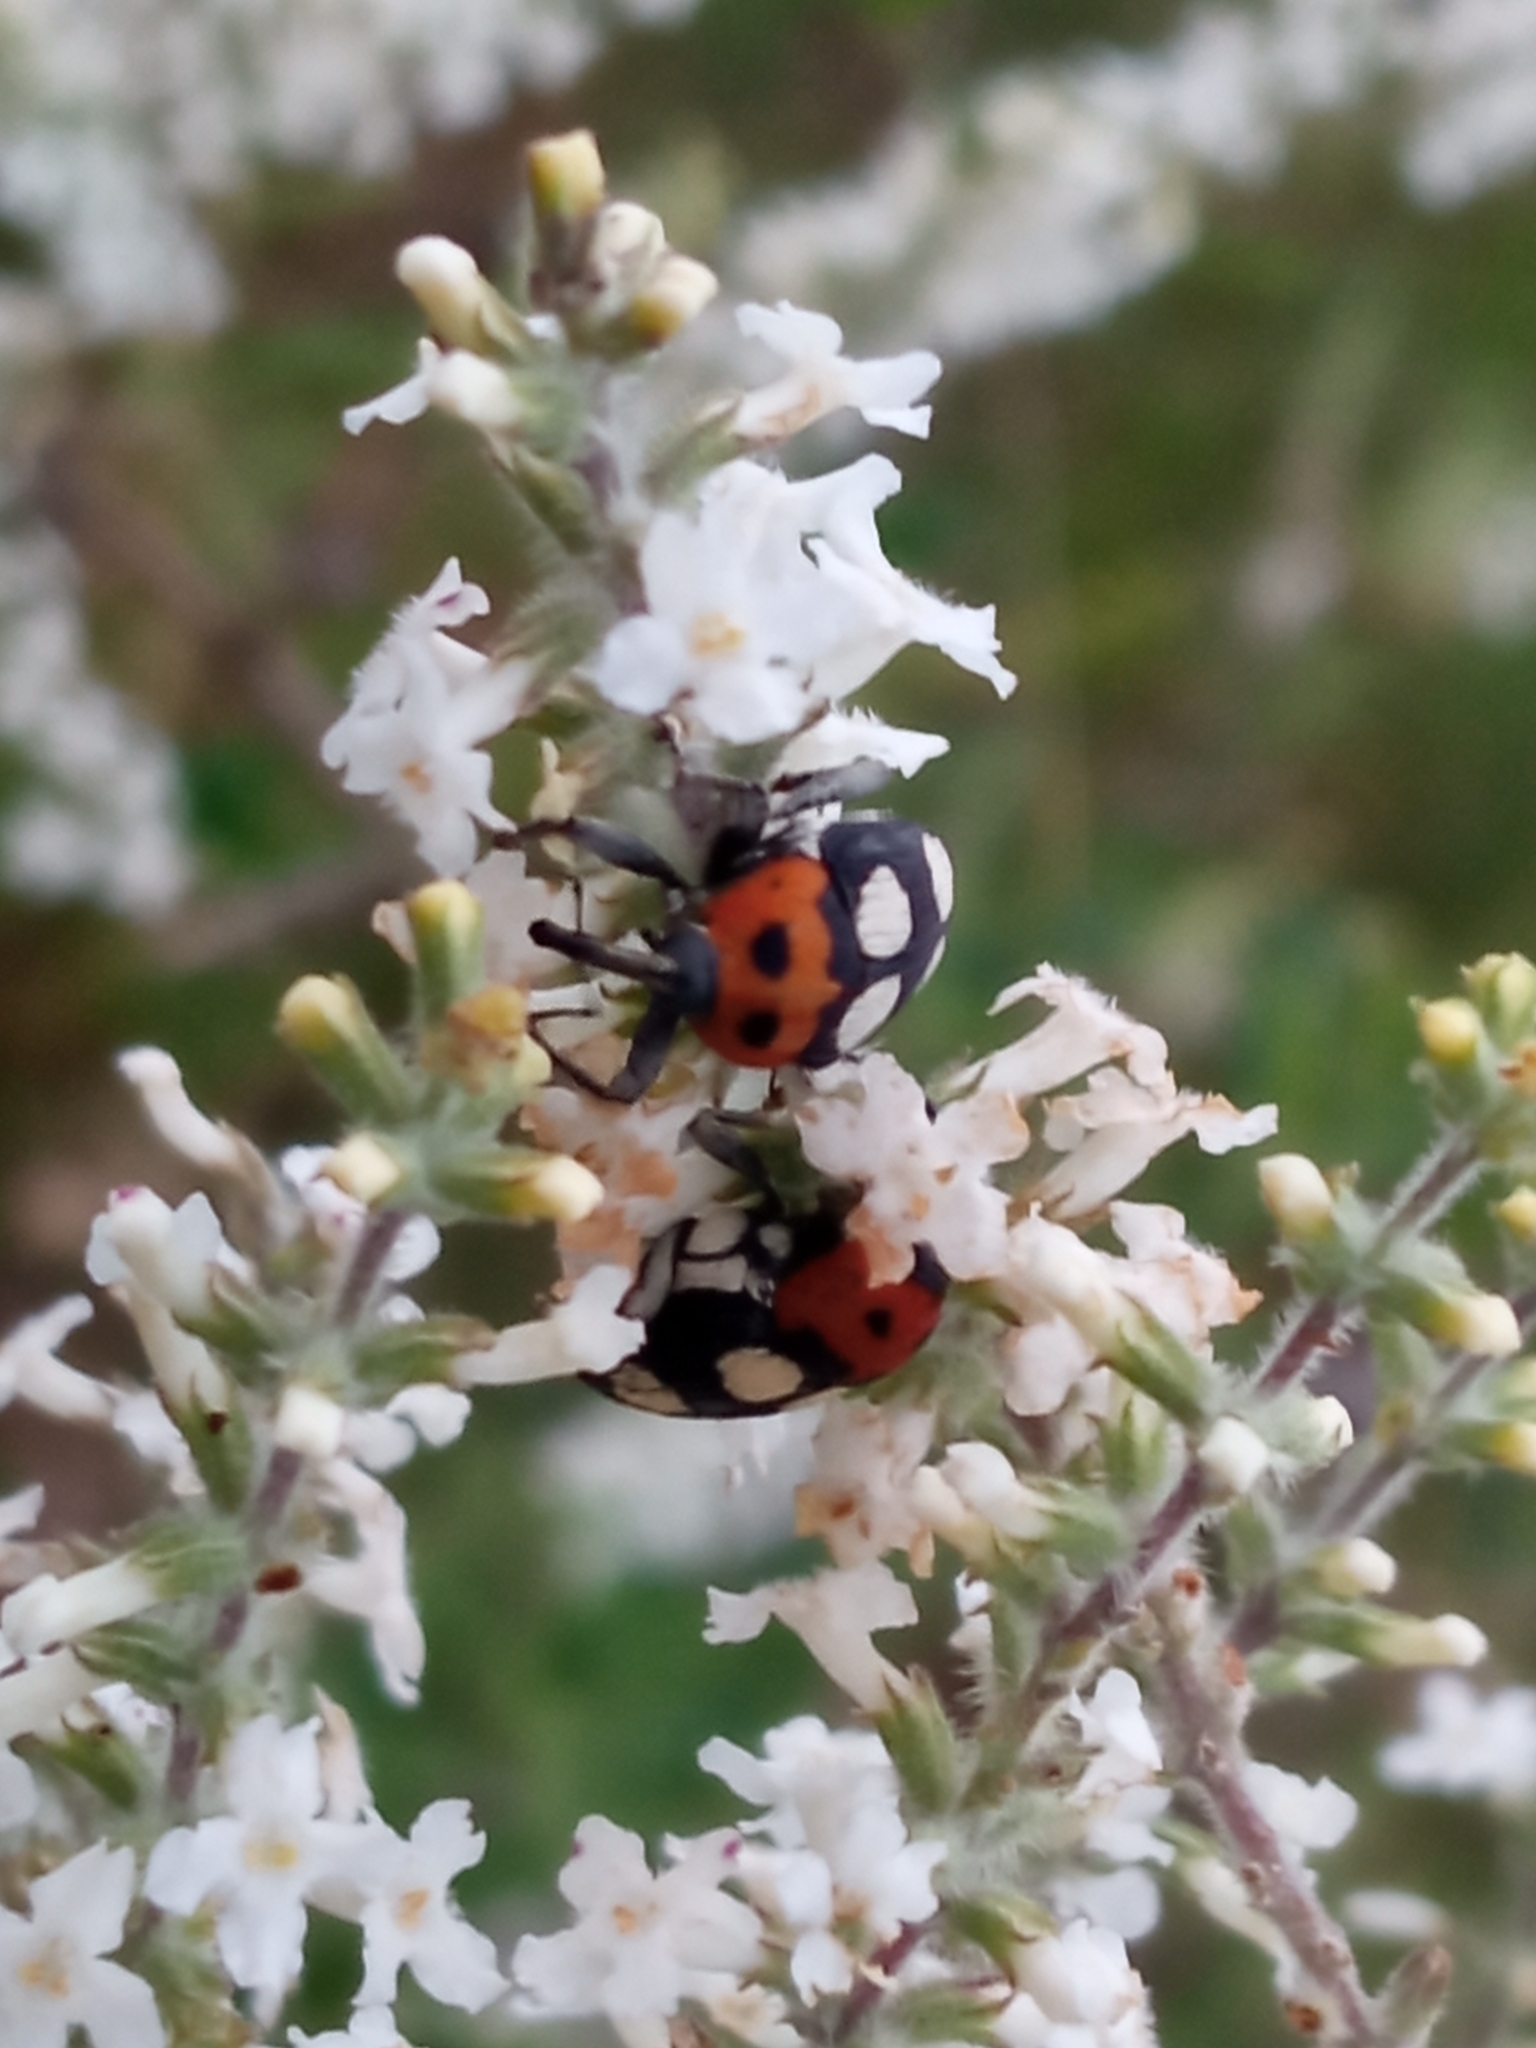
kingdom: Animalia
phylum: Arthropoda
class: Insecta
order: Coleoptera
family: Curculionidae
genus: Megabaris
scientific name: Megabaris quadriguttatus
